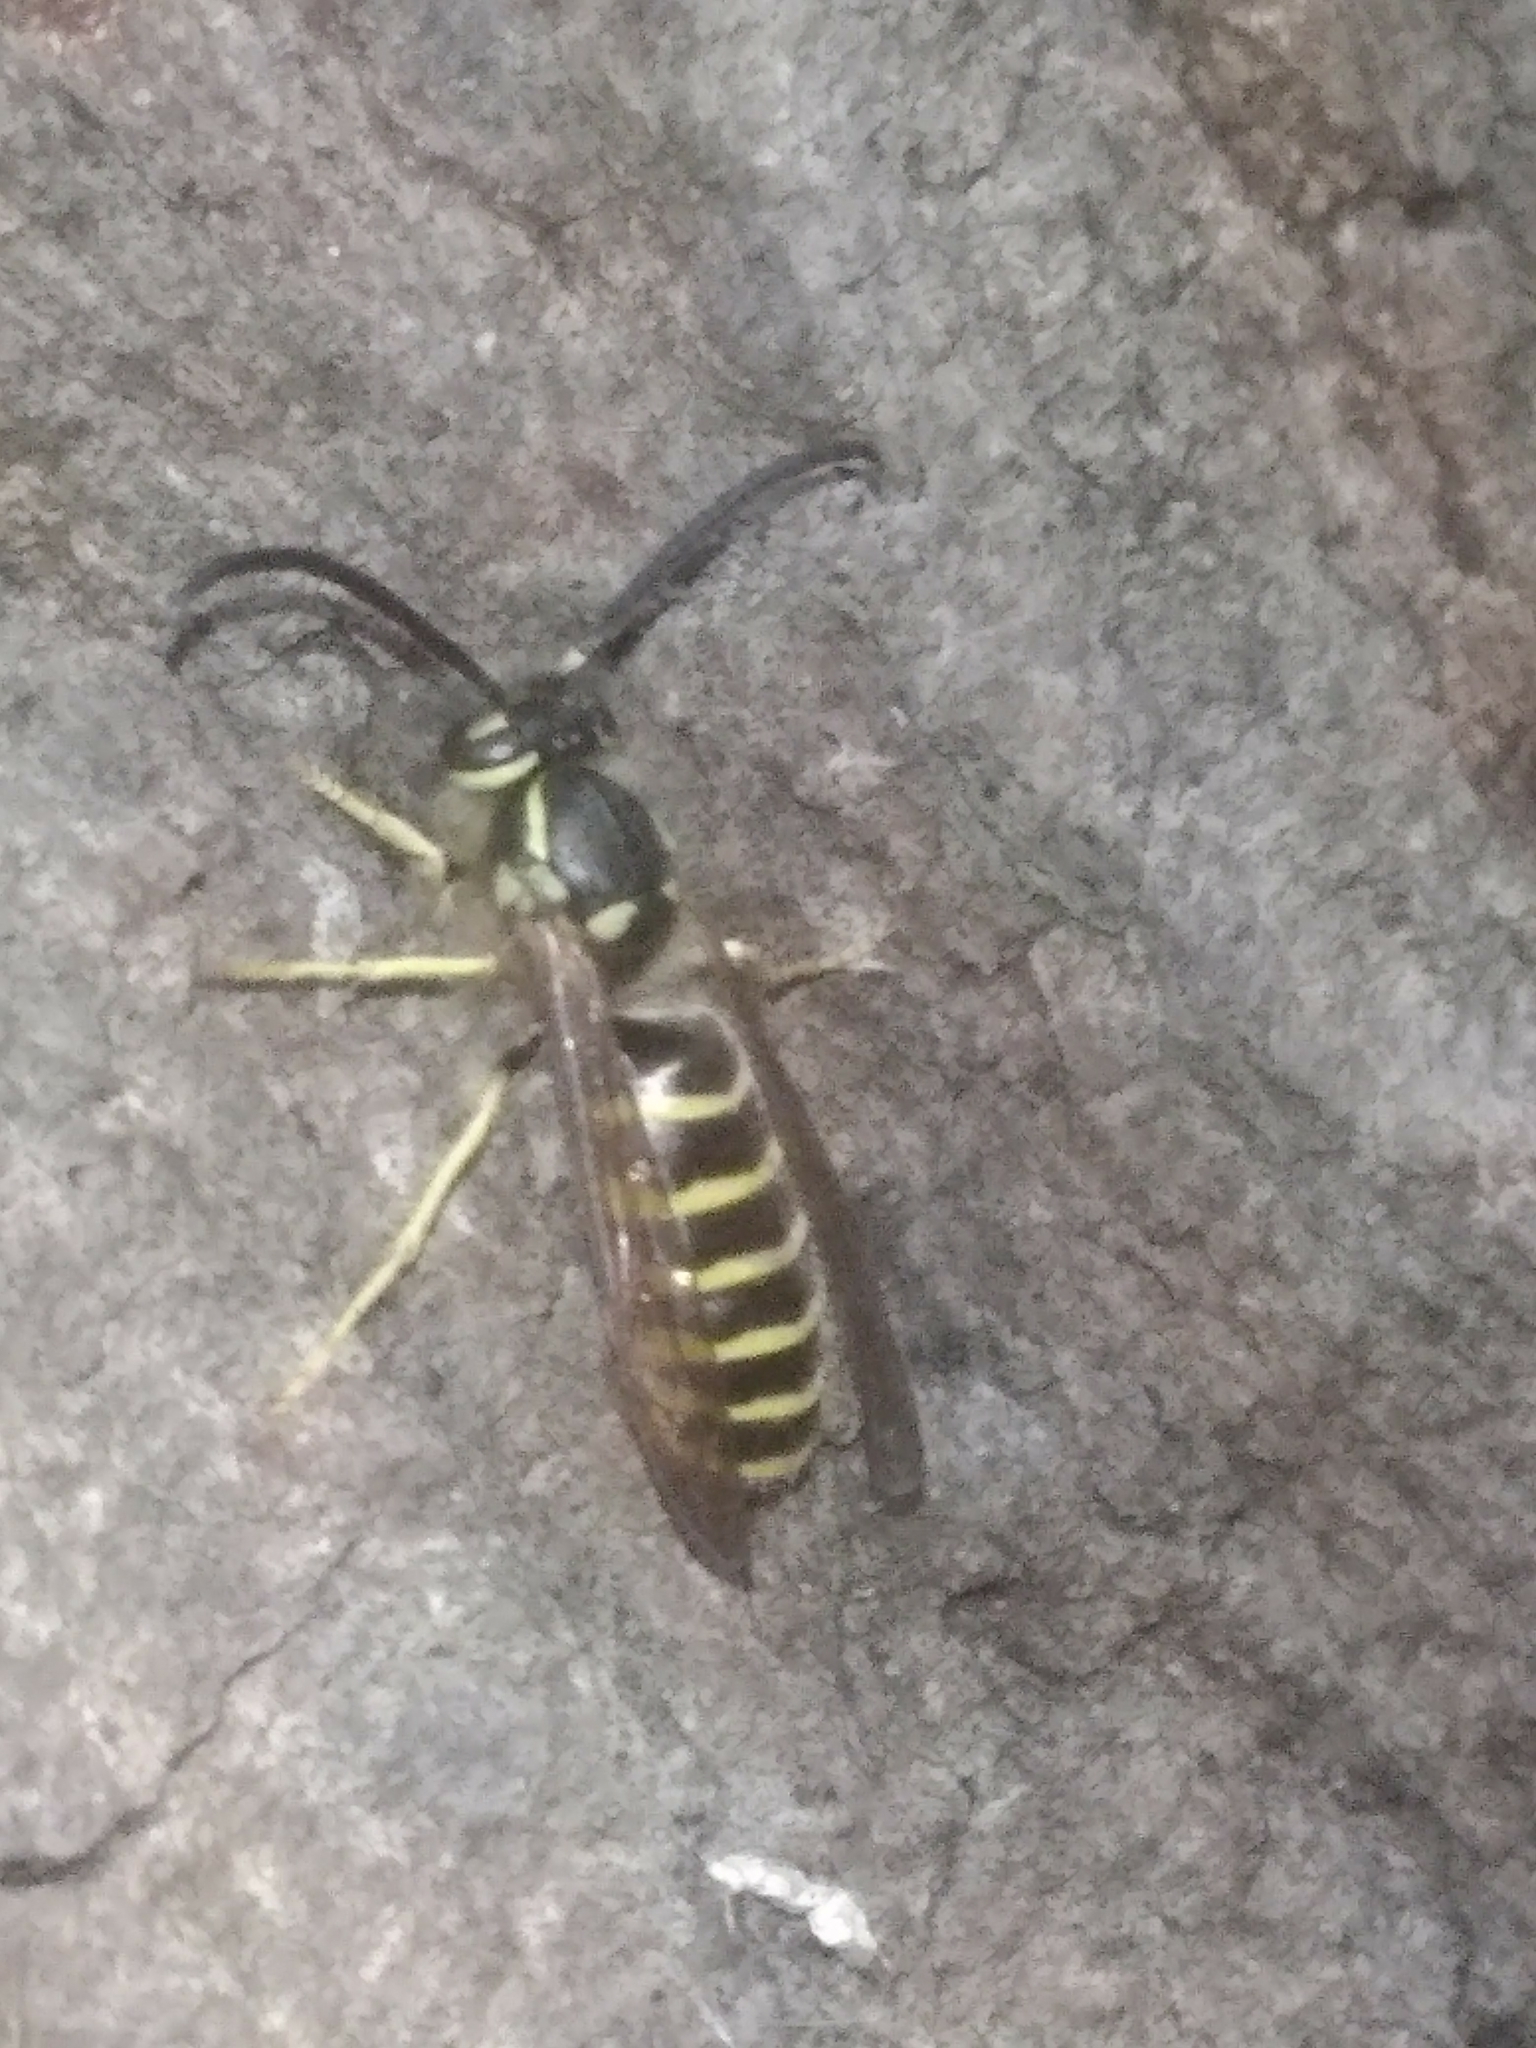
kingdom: Animalia
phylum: Arthropoda
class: Insecta
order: Hymenoptera
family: Vespidae
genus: Vespula
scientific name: Vespula
